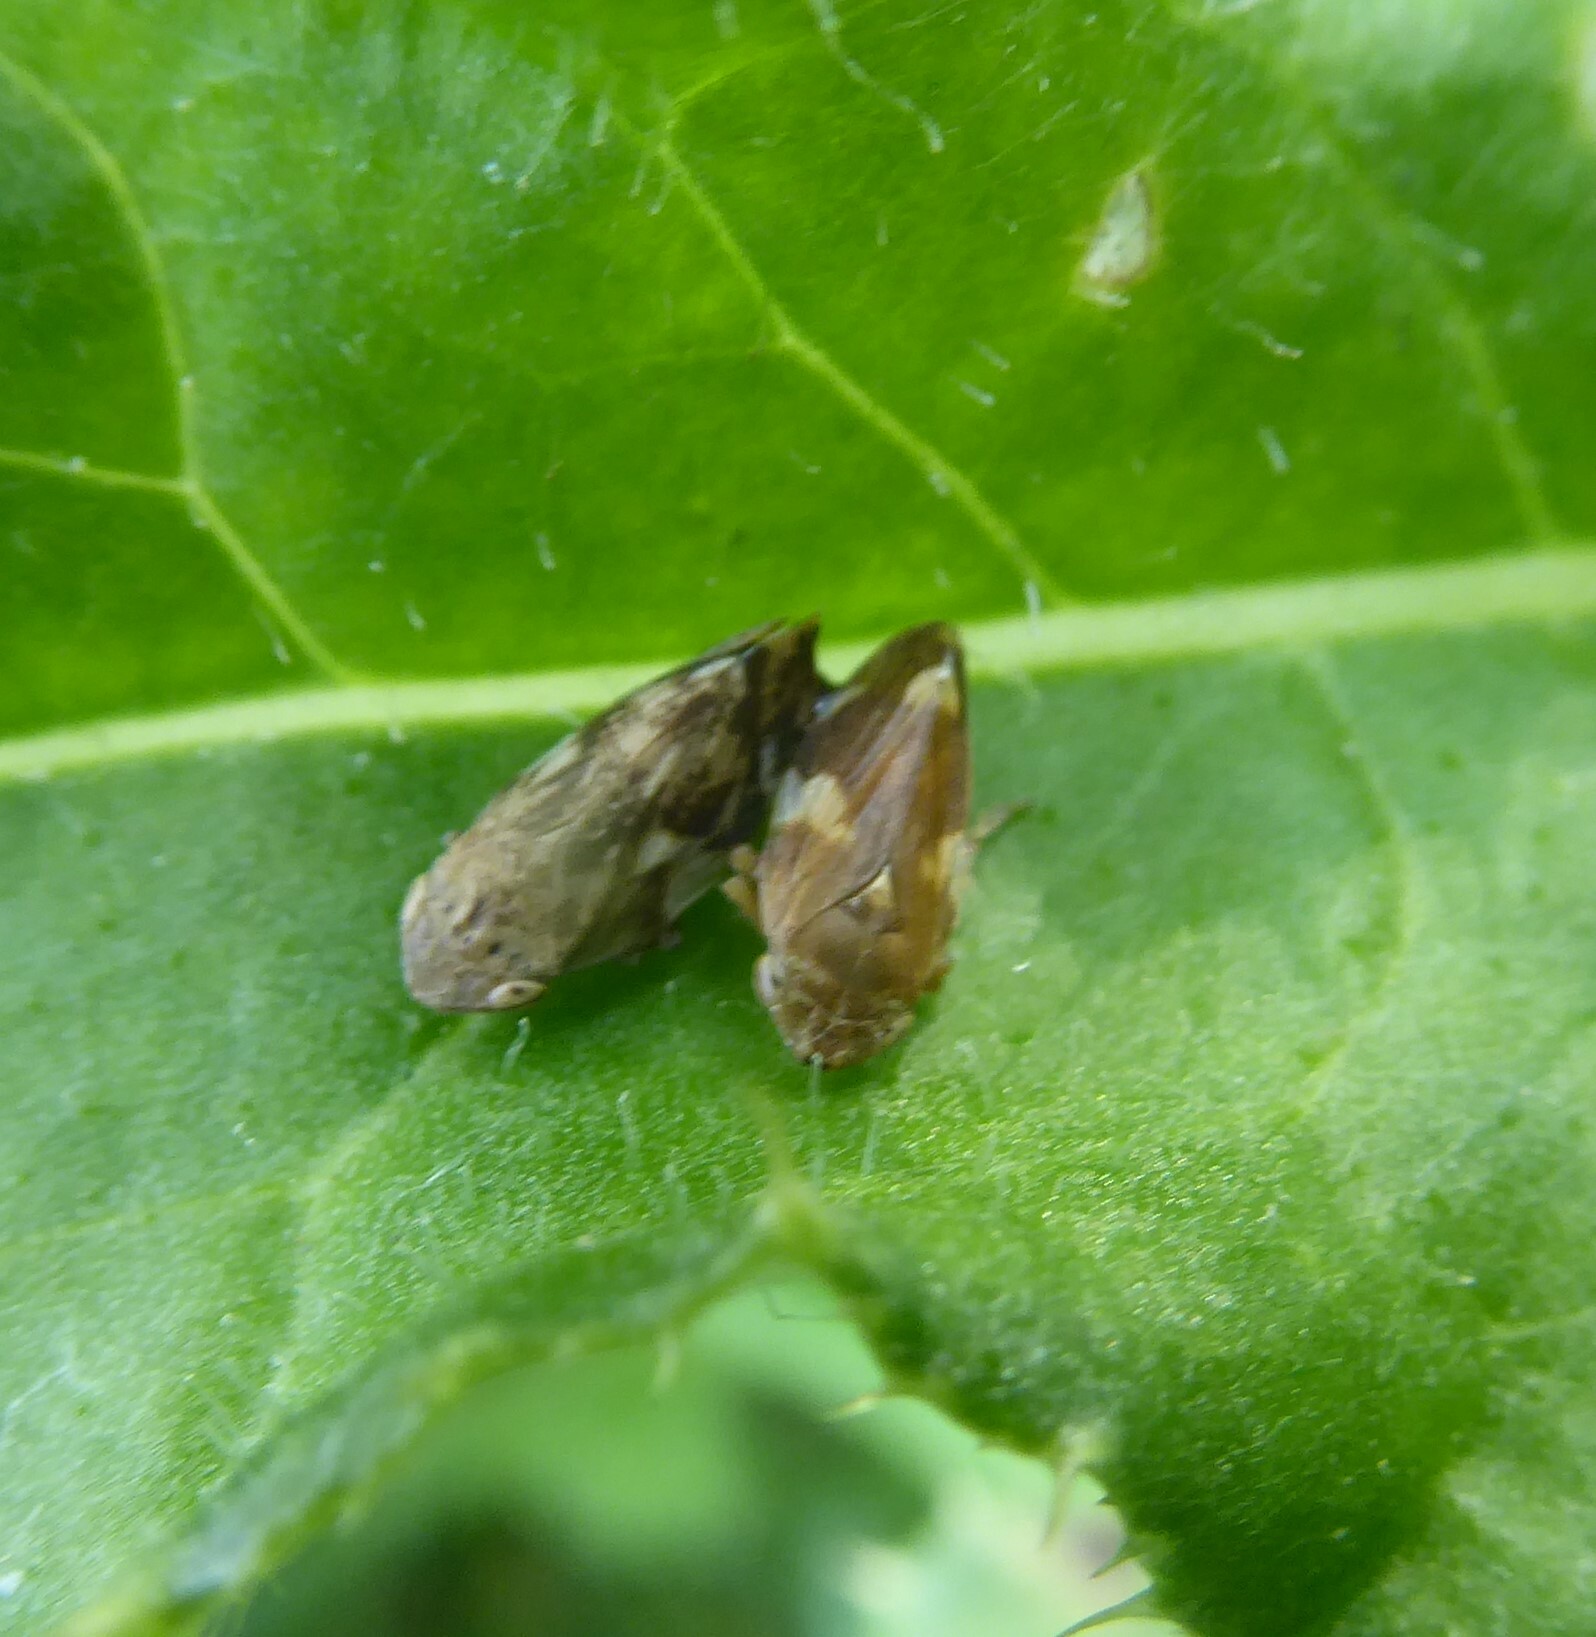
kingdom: Animalia
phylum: Arthropoda
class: Insecta
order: Hemiptera
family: Aphrophoridae
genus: Philaenus
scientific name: Philaenus spumarius
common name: Meadow spittlebug
